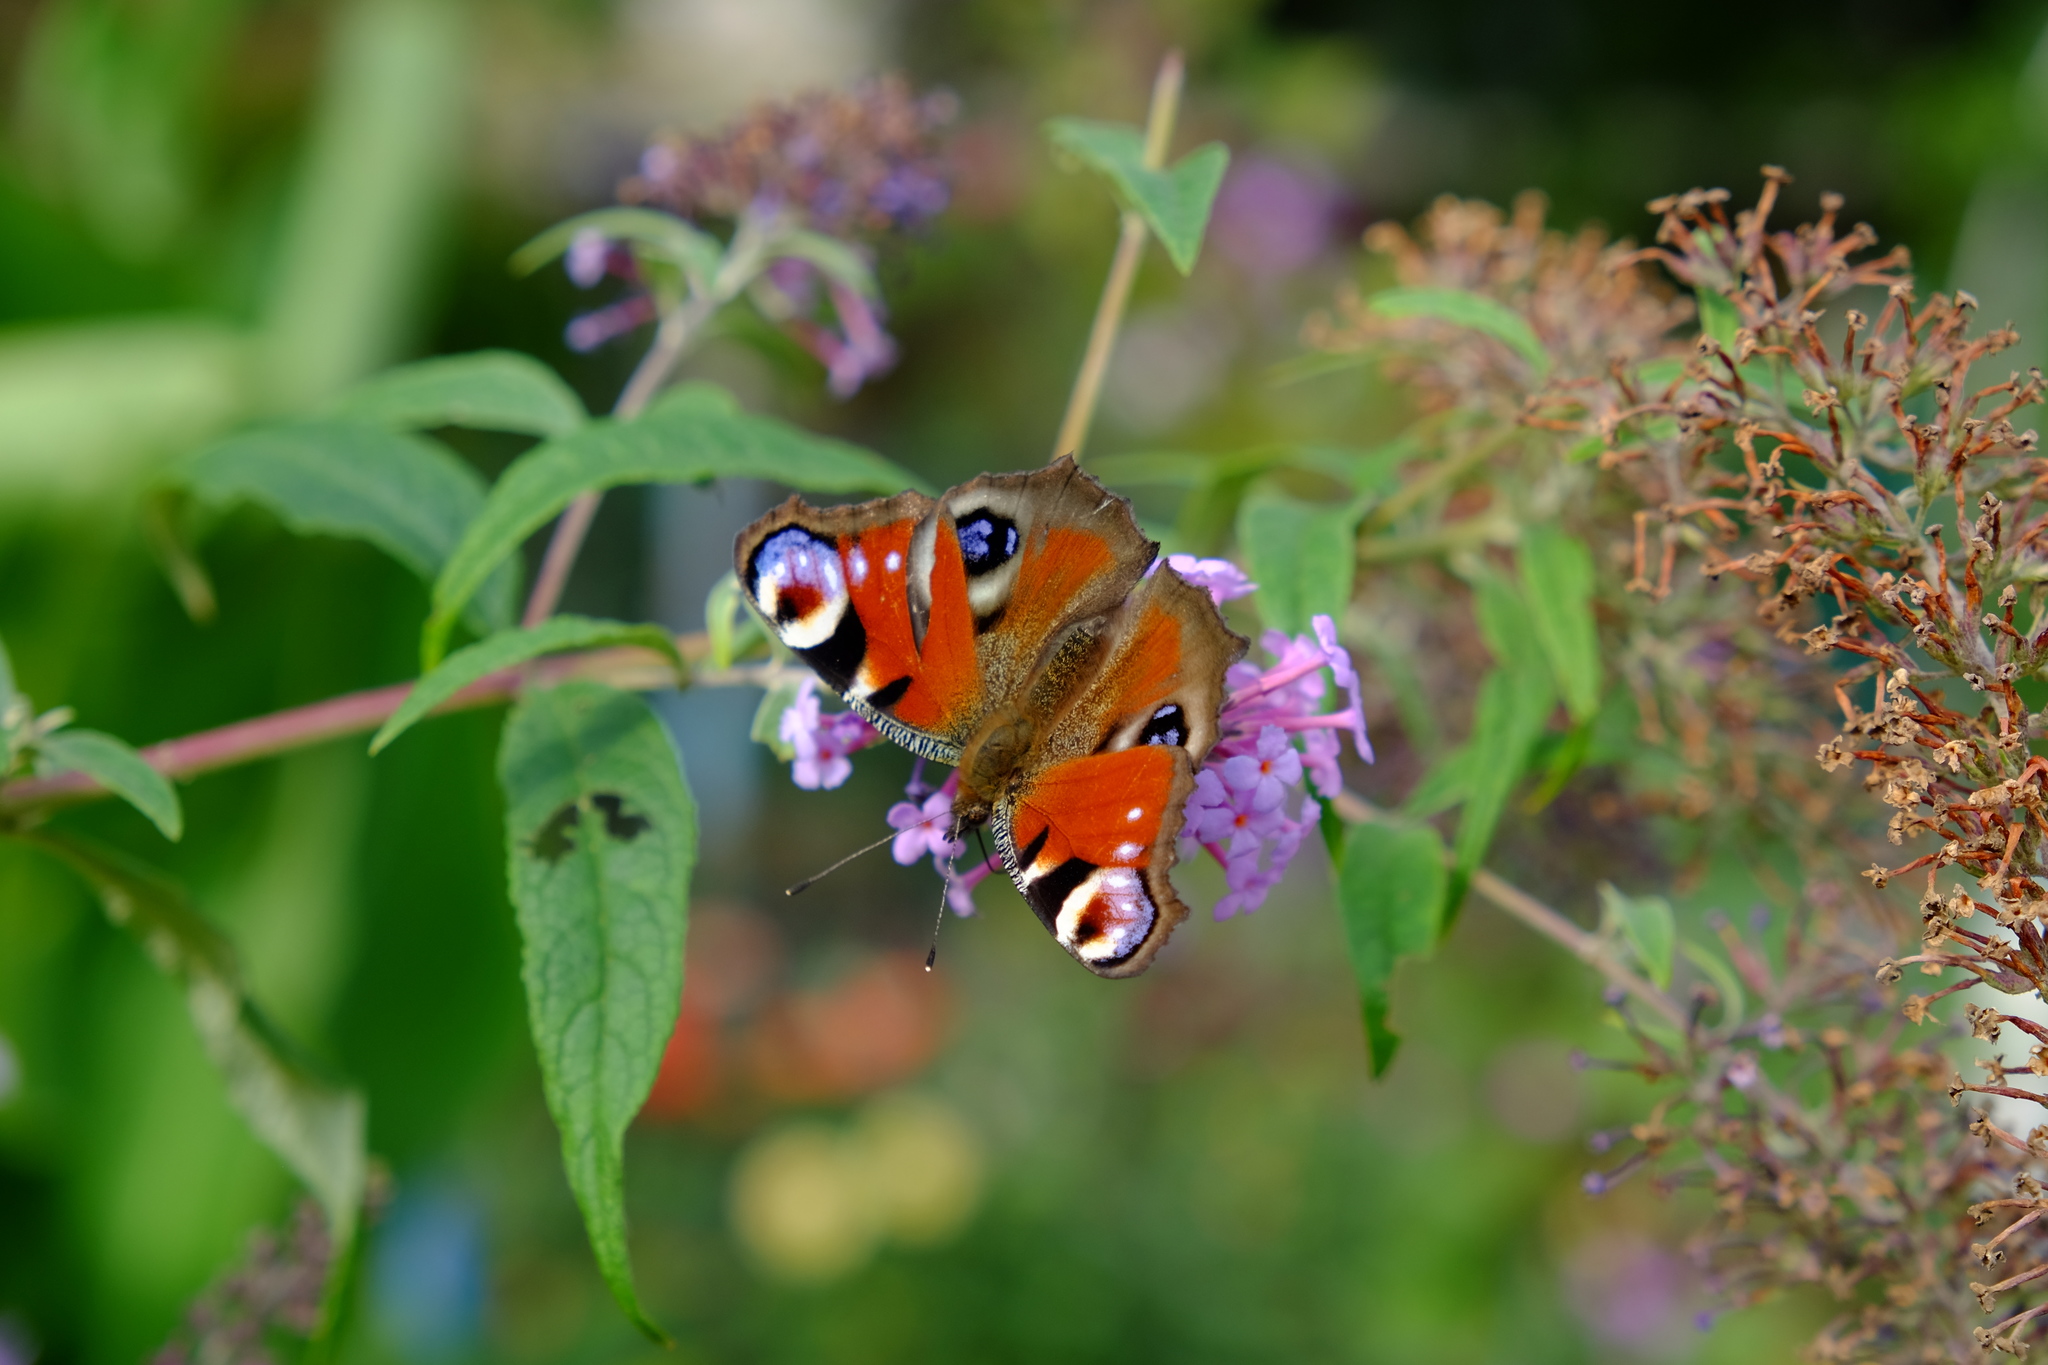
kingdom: Animalia
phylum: Arthropoda
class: Insecta
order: Lepidoptera
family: Nymphalidae
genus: Aglais
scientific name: Aglais io
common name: Peacock
